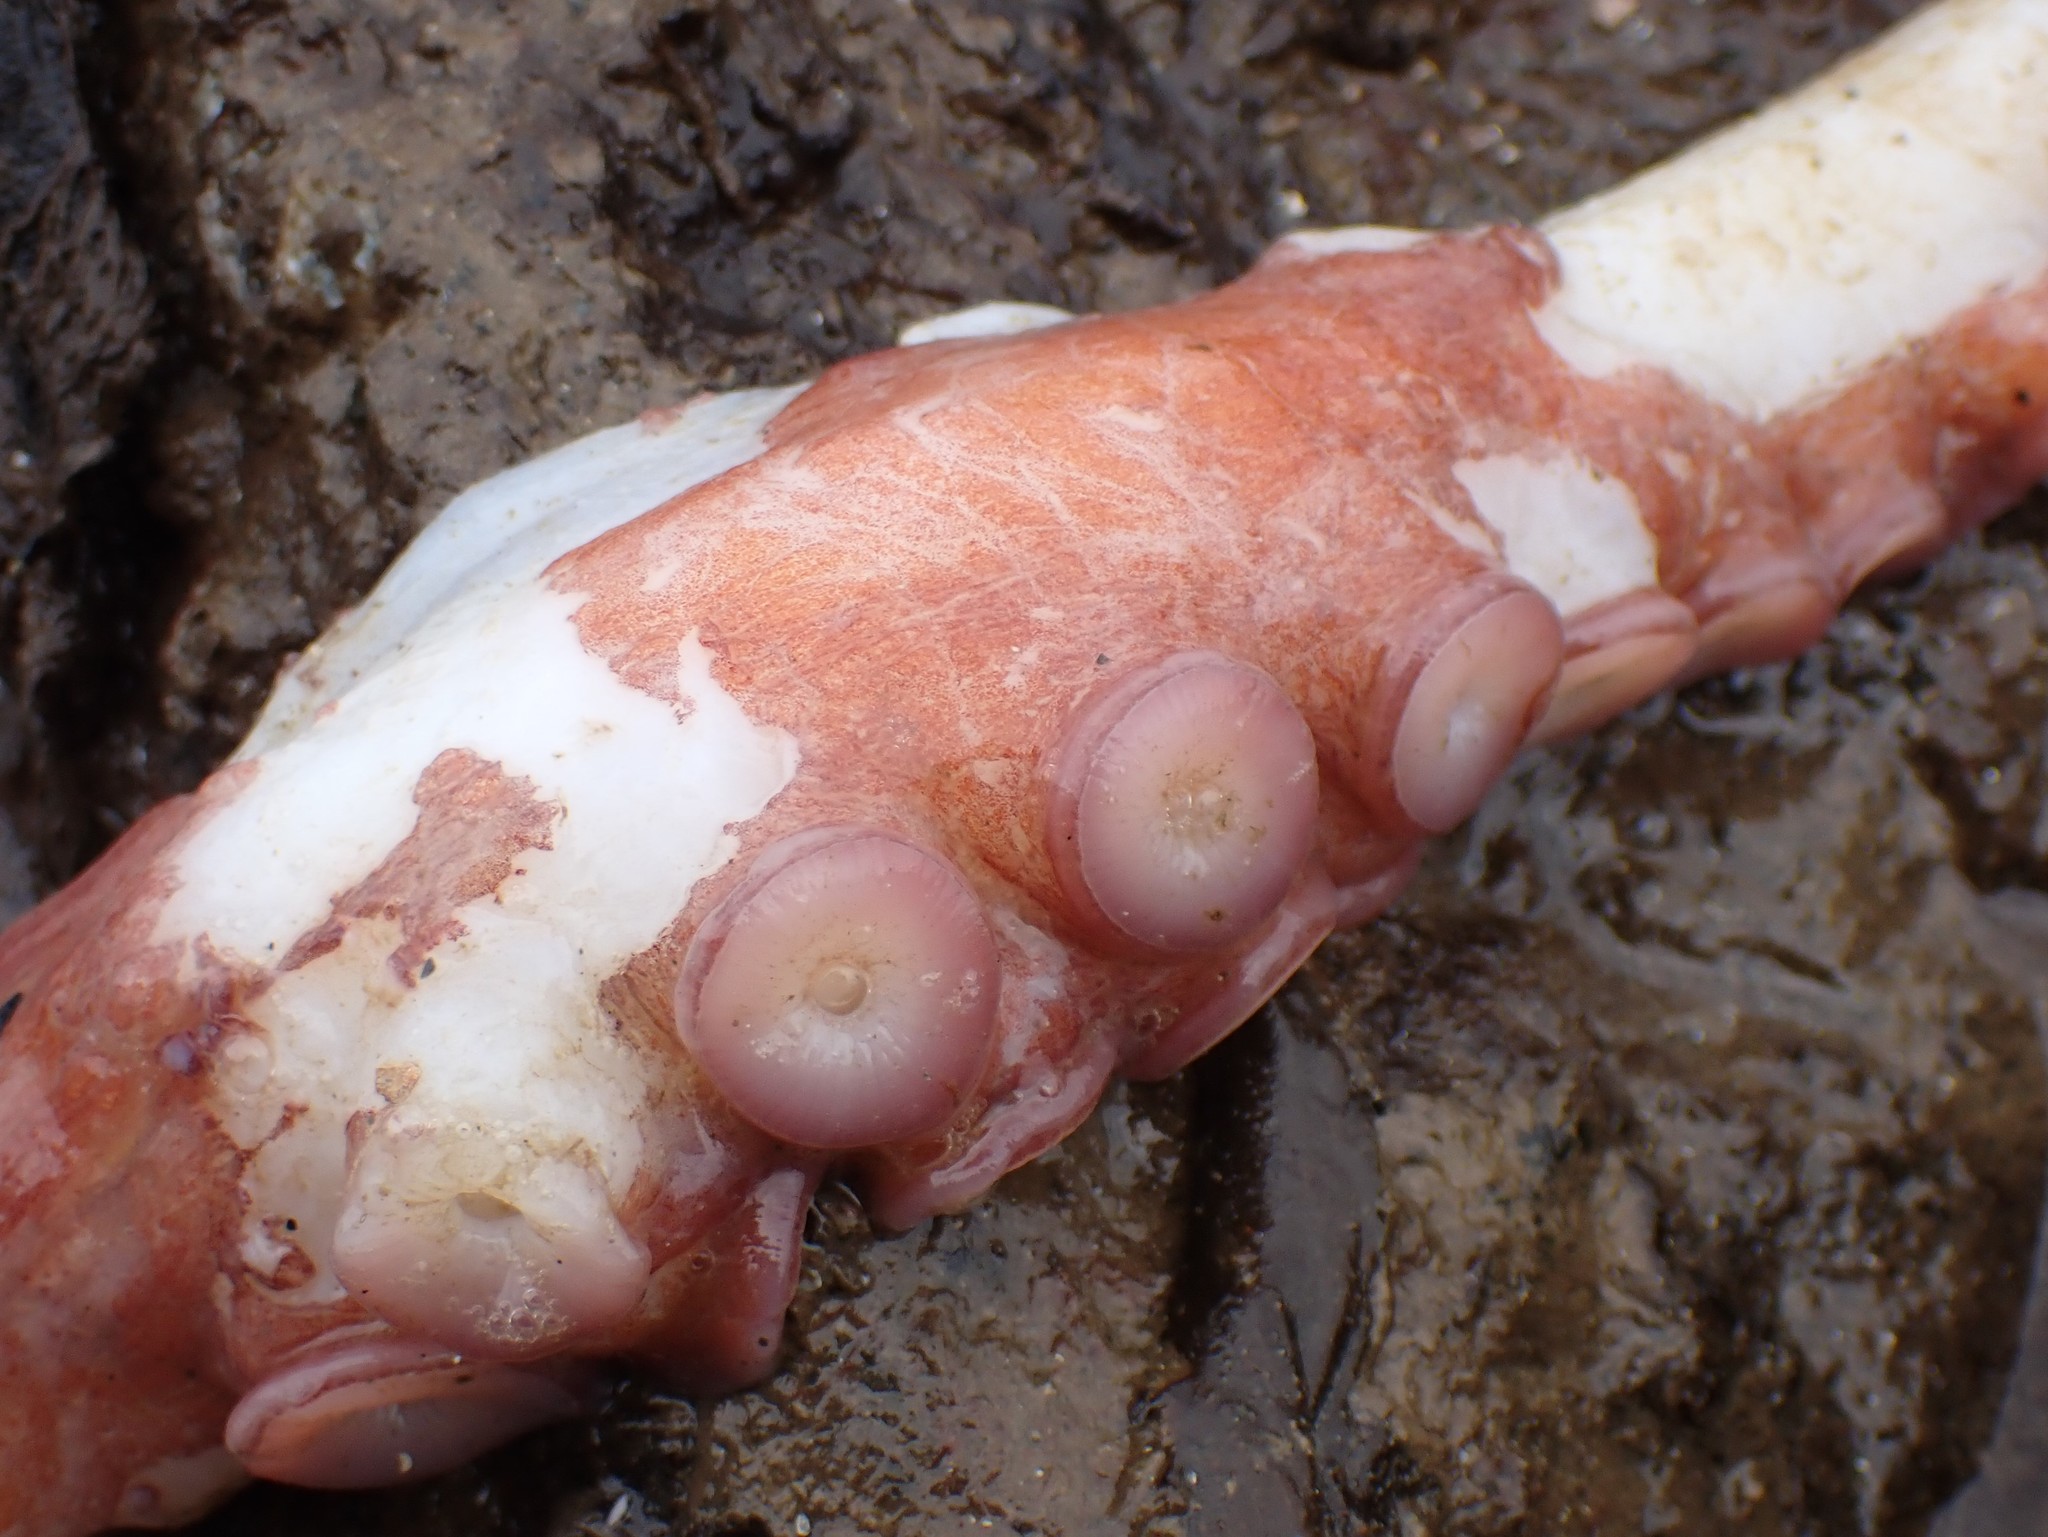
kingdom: Animalia
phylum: Mollusca
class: Cephalopoda
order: Octopoda
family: Enteroctopodidae
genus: Enteroctopus
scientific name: Enteroctopus dofleini
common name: Giant north pacific octopus
